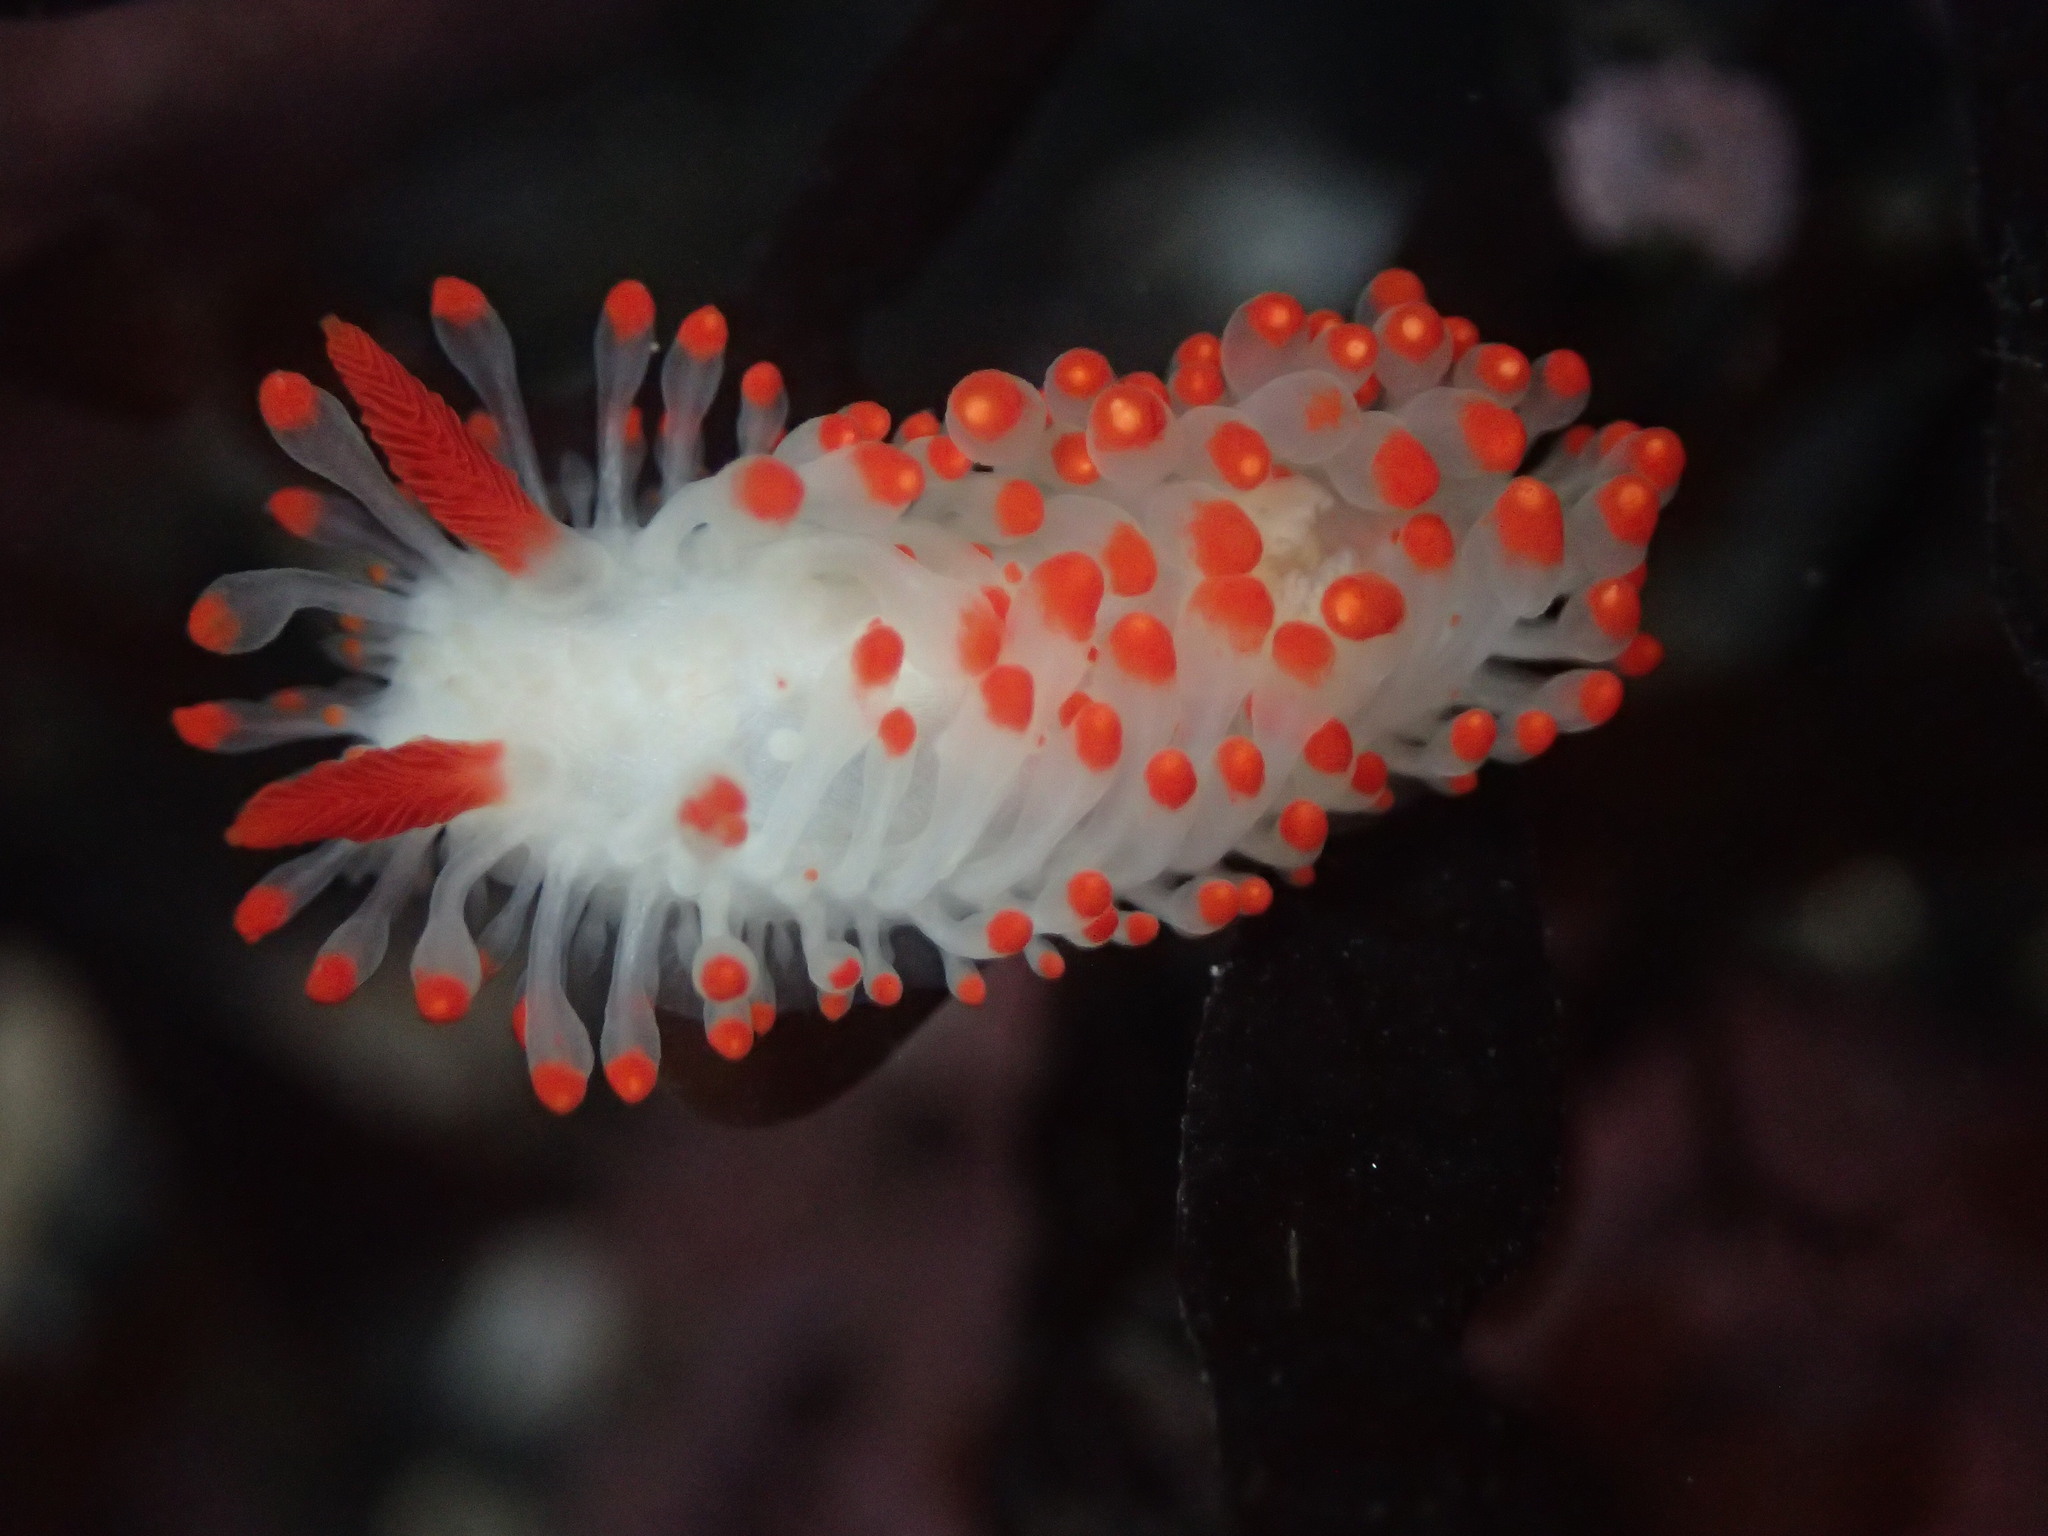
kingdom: Animalia
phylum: Mollusca
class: Gastropoda
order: Nudibranchia
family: Polyceridae
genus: Limacia
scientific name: Limacia cockerelli
